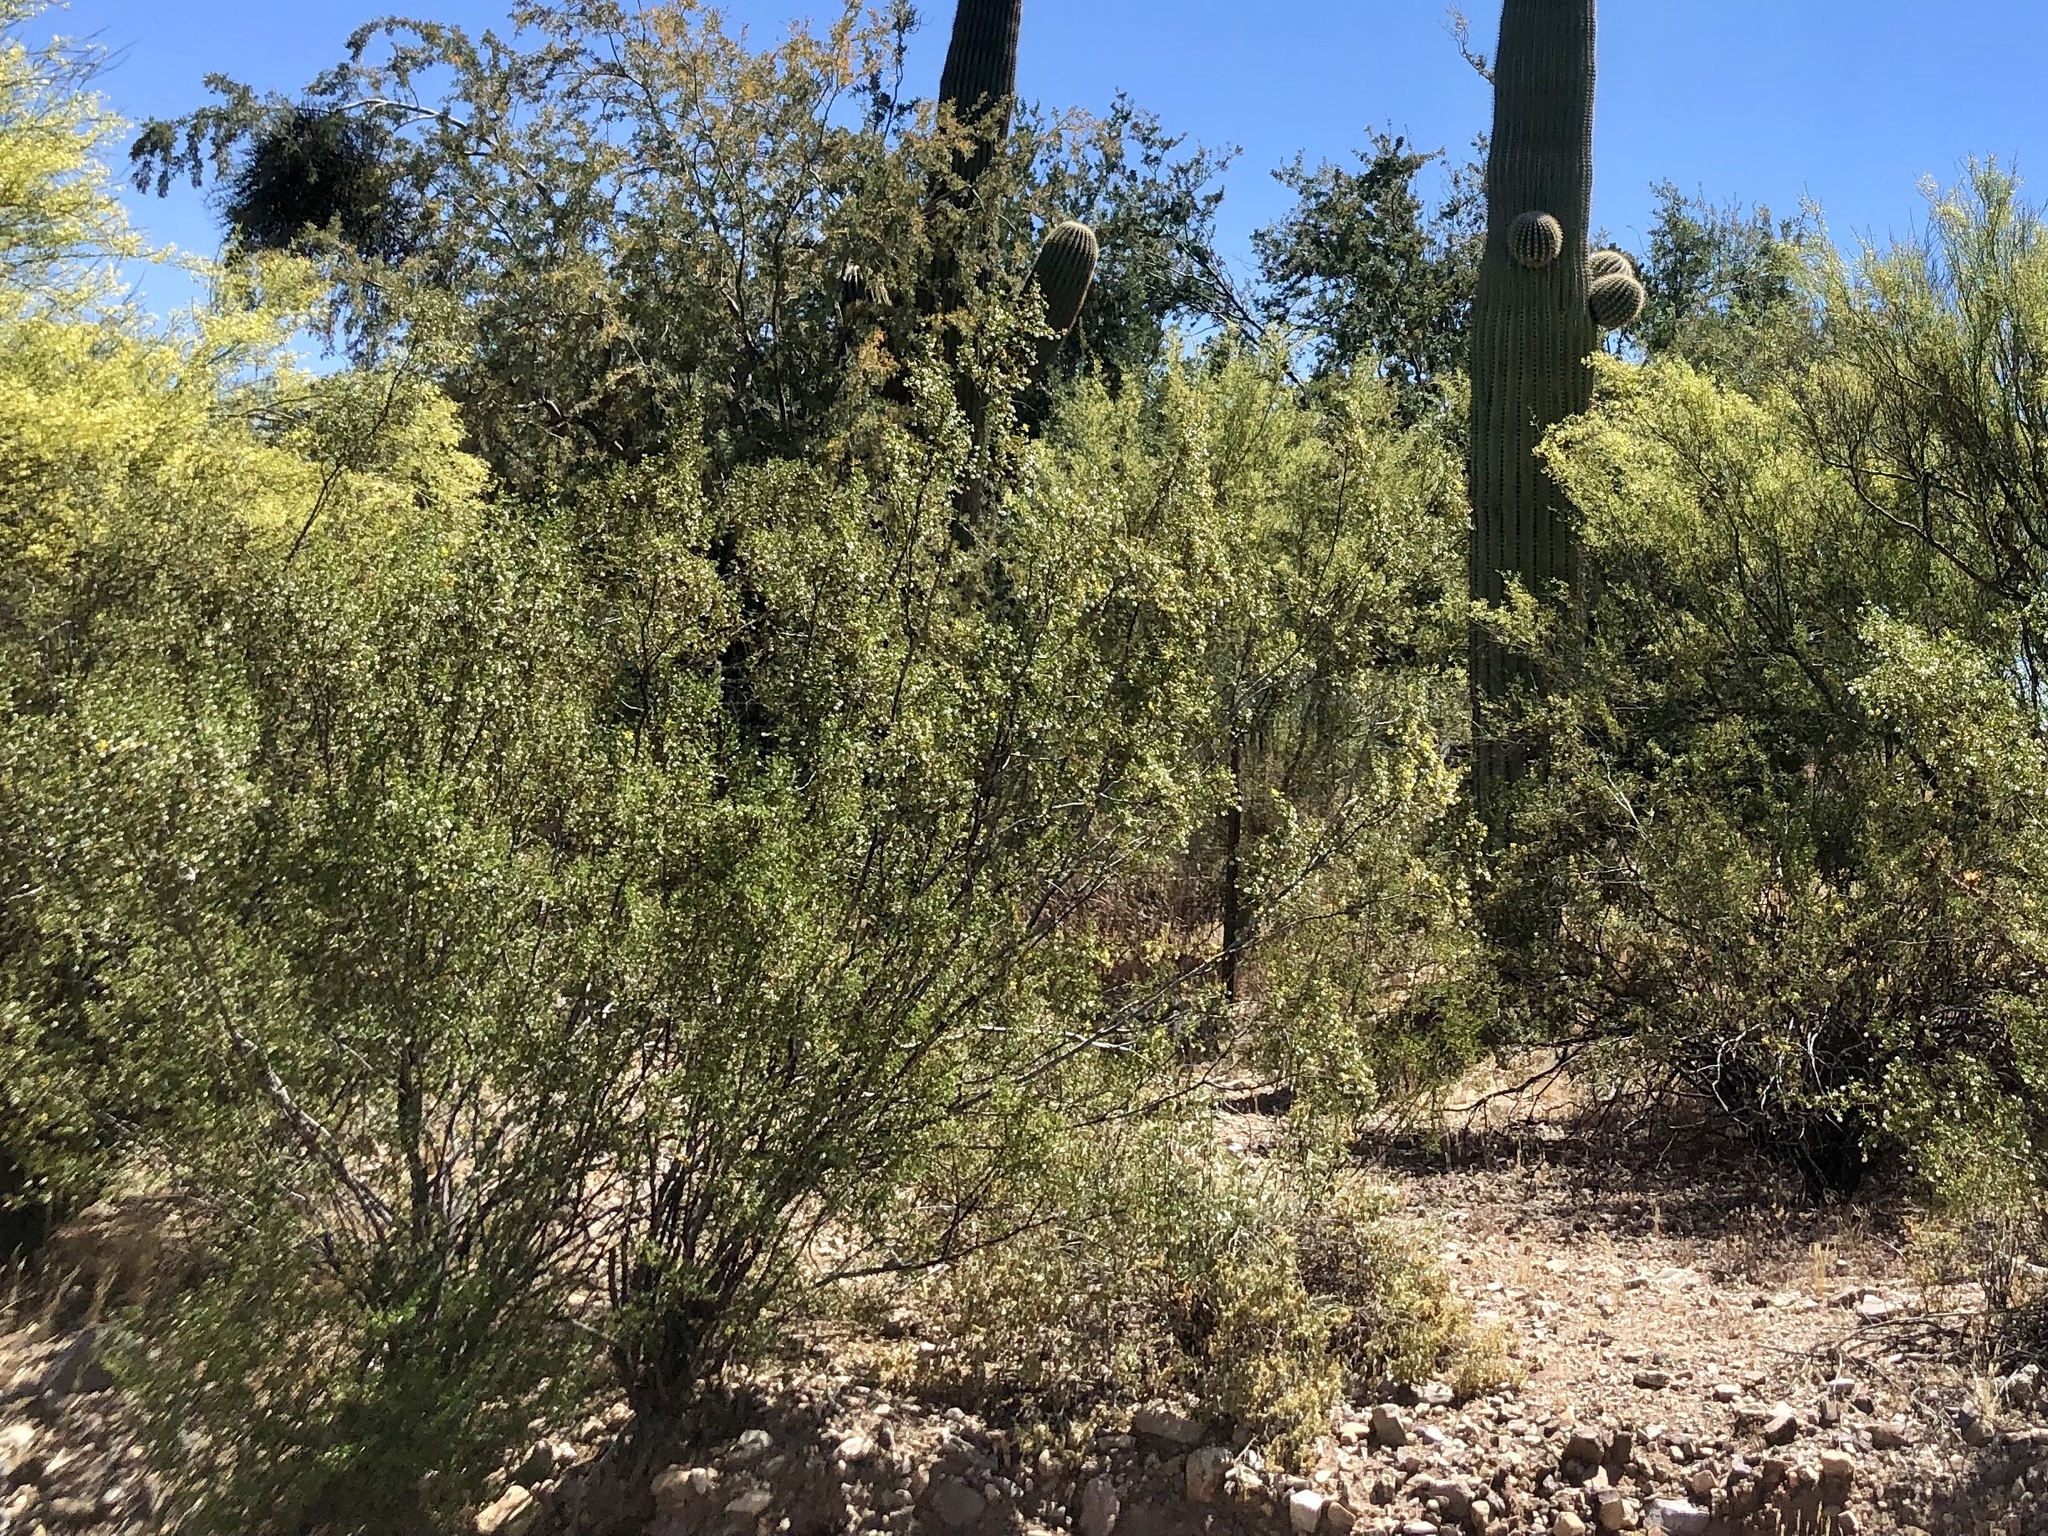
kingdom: Plantae
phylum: Tracheophyta
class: Magnoliopsida
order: Zygophyllales
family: Zygophyllaceae
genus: Larrea
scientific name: Larrea tridentata
